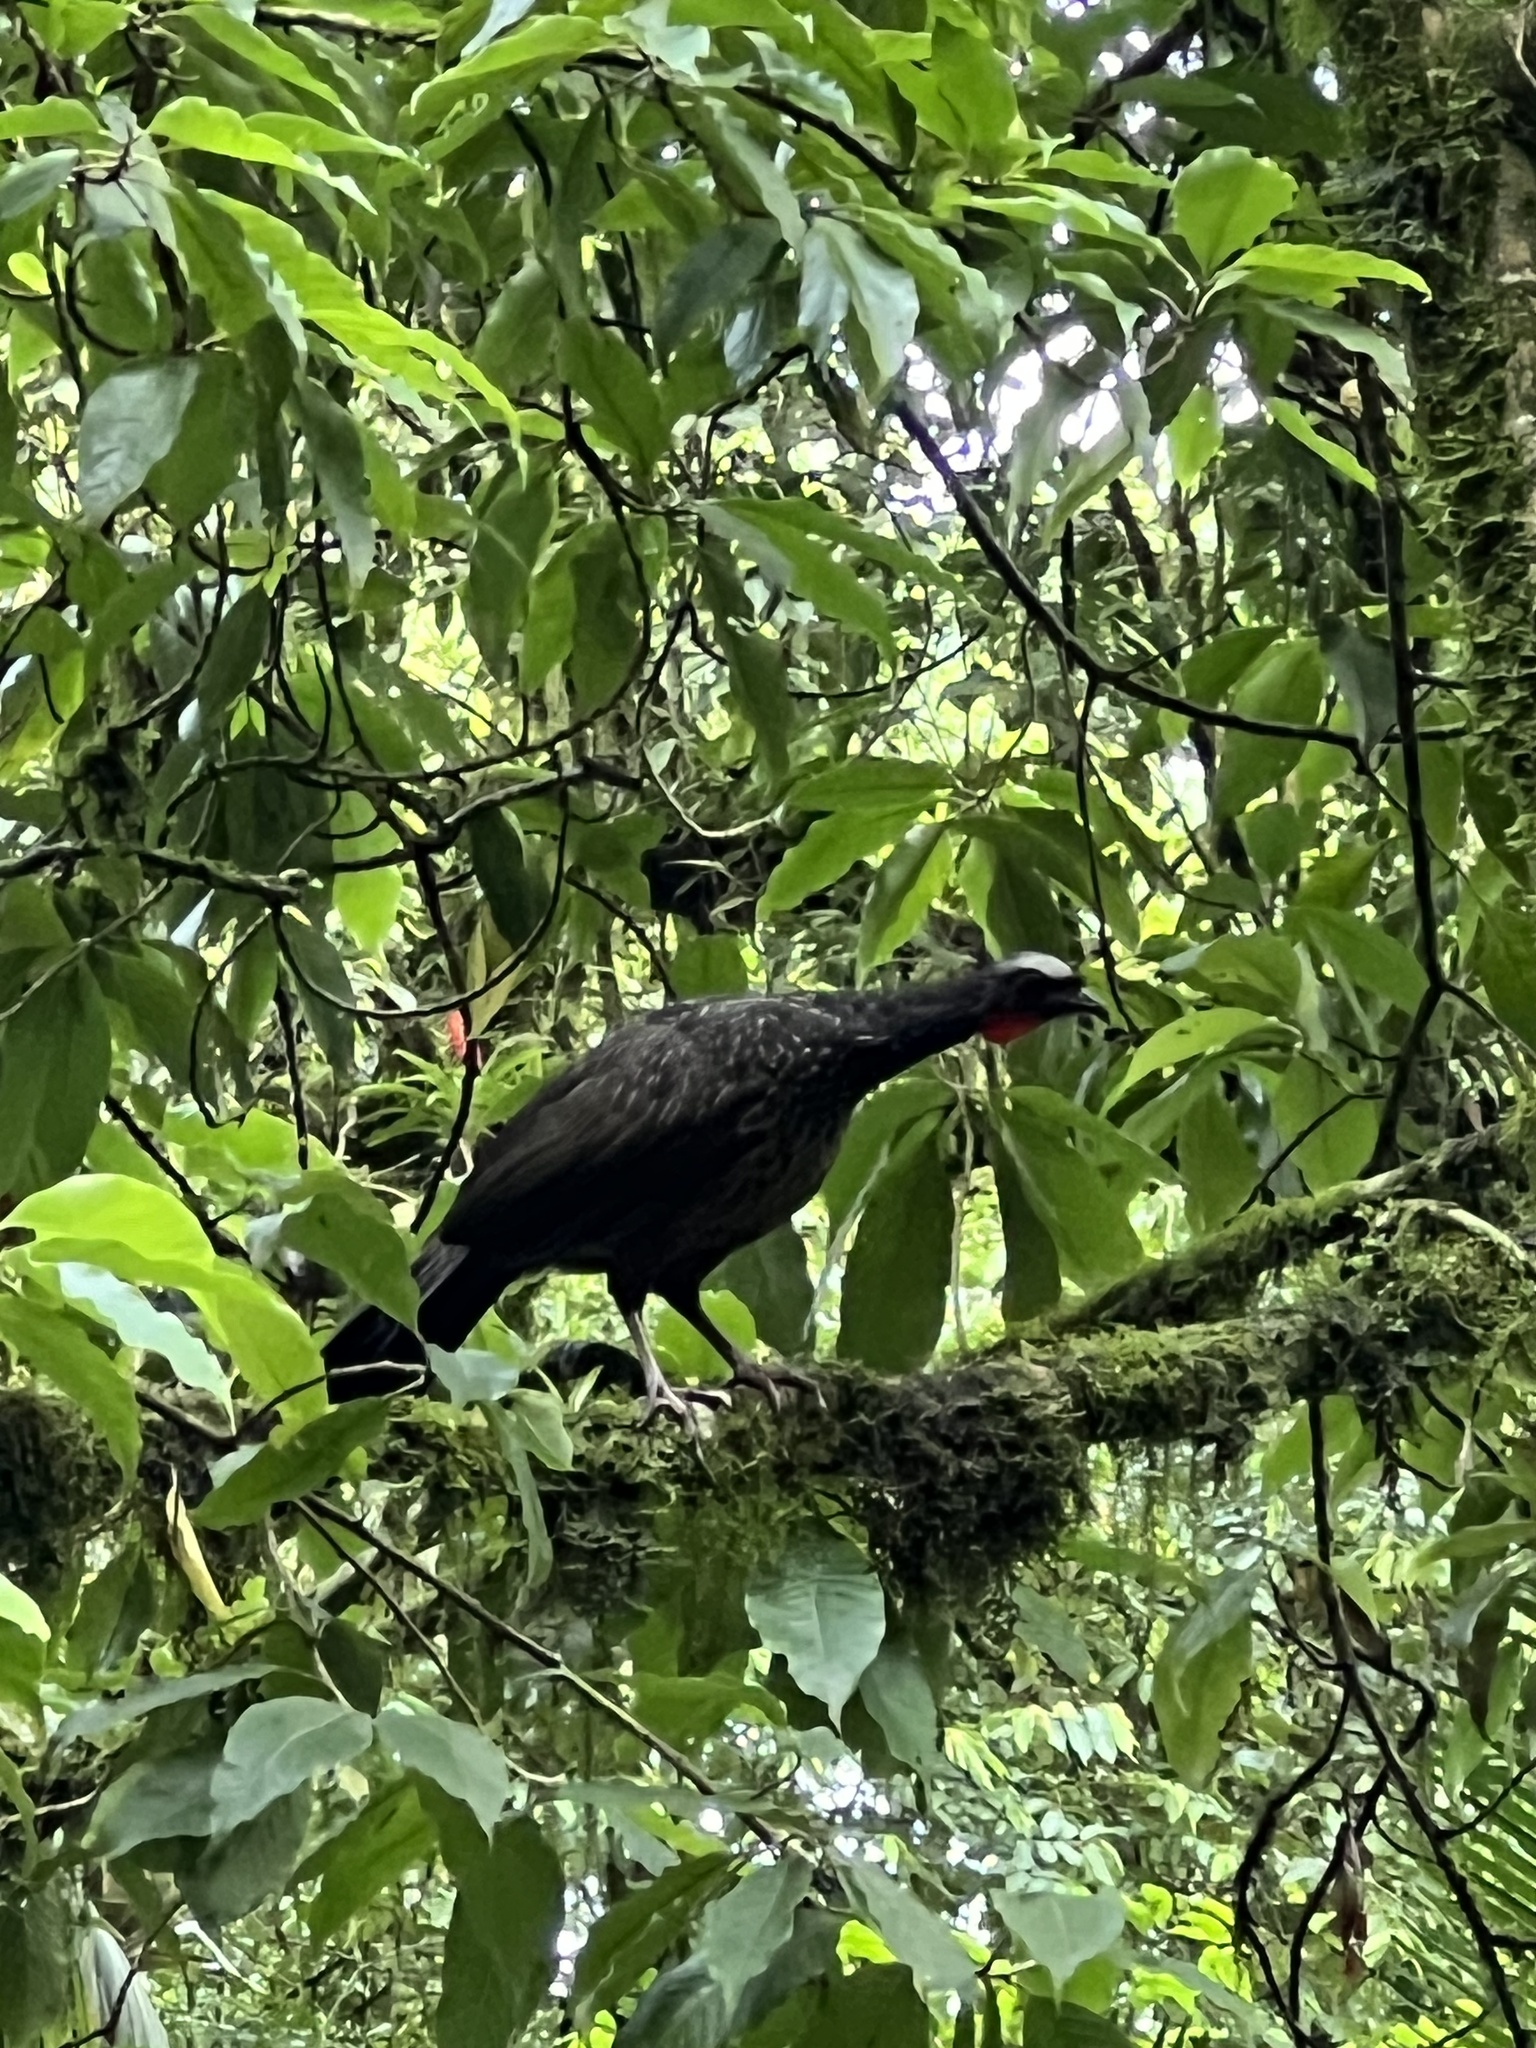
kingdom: Animalia
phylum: Chordata
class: Aves
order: Galliformes
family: Cracidae
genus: Penelope
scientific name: Penelope obscura
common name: Dusky-legged guan
